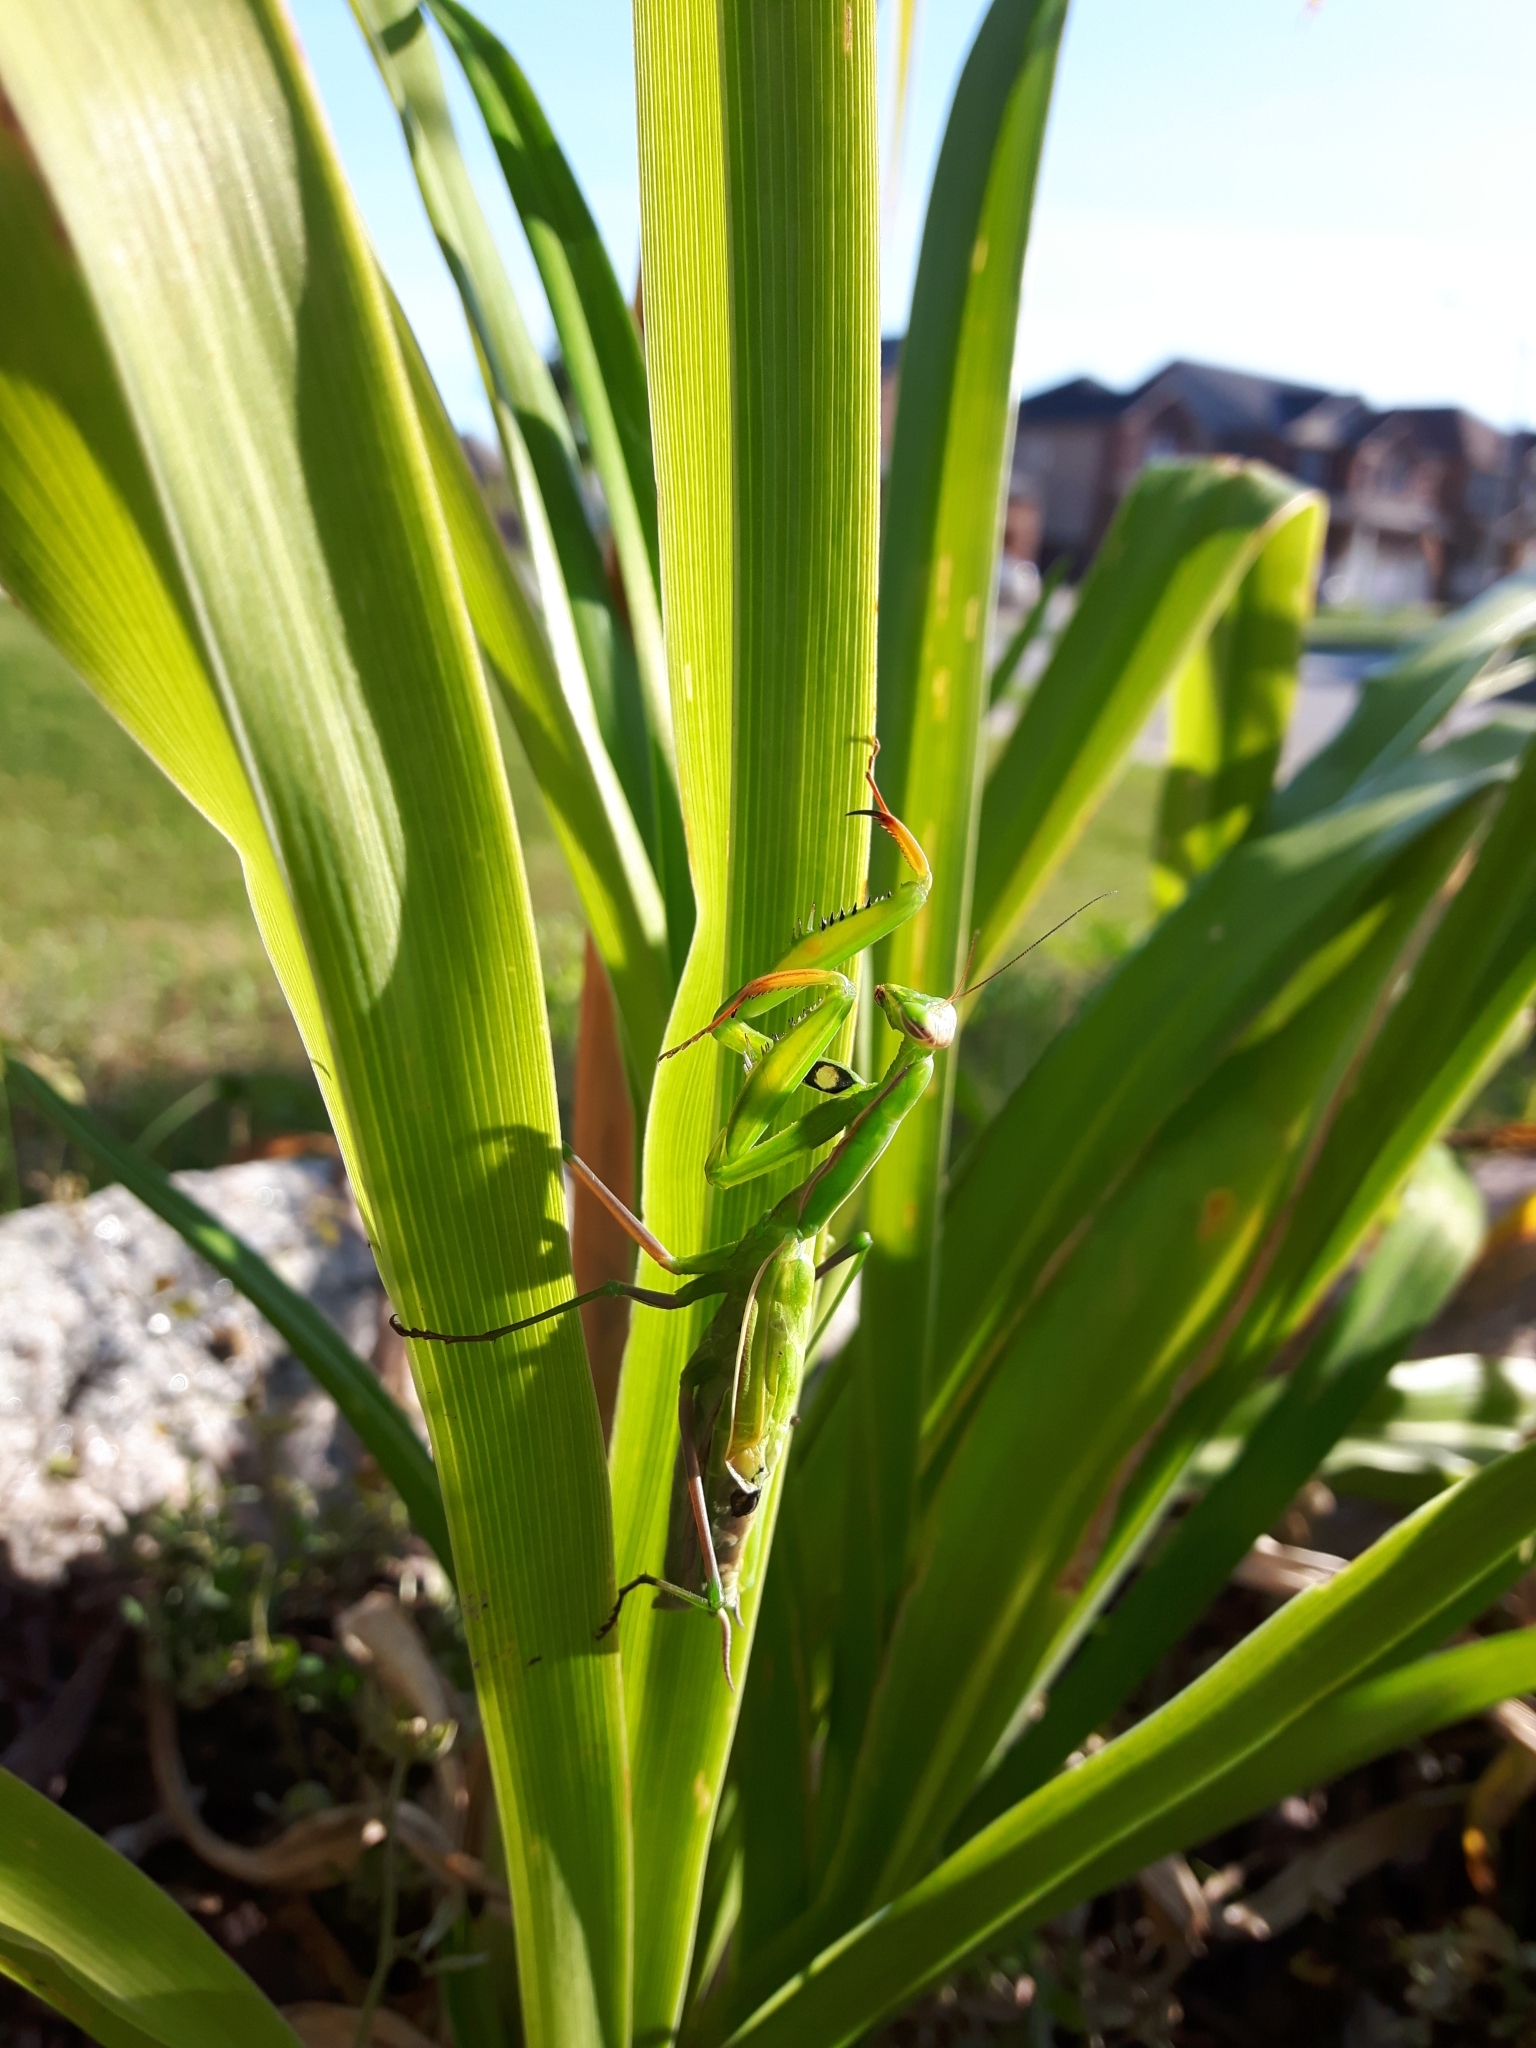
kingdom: Animalia
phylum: Arthropoda
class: Insecta
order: Mantodea
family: Mantidae
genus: Mantis
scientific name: Mantis religiosa
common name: Praying mantis
